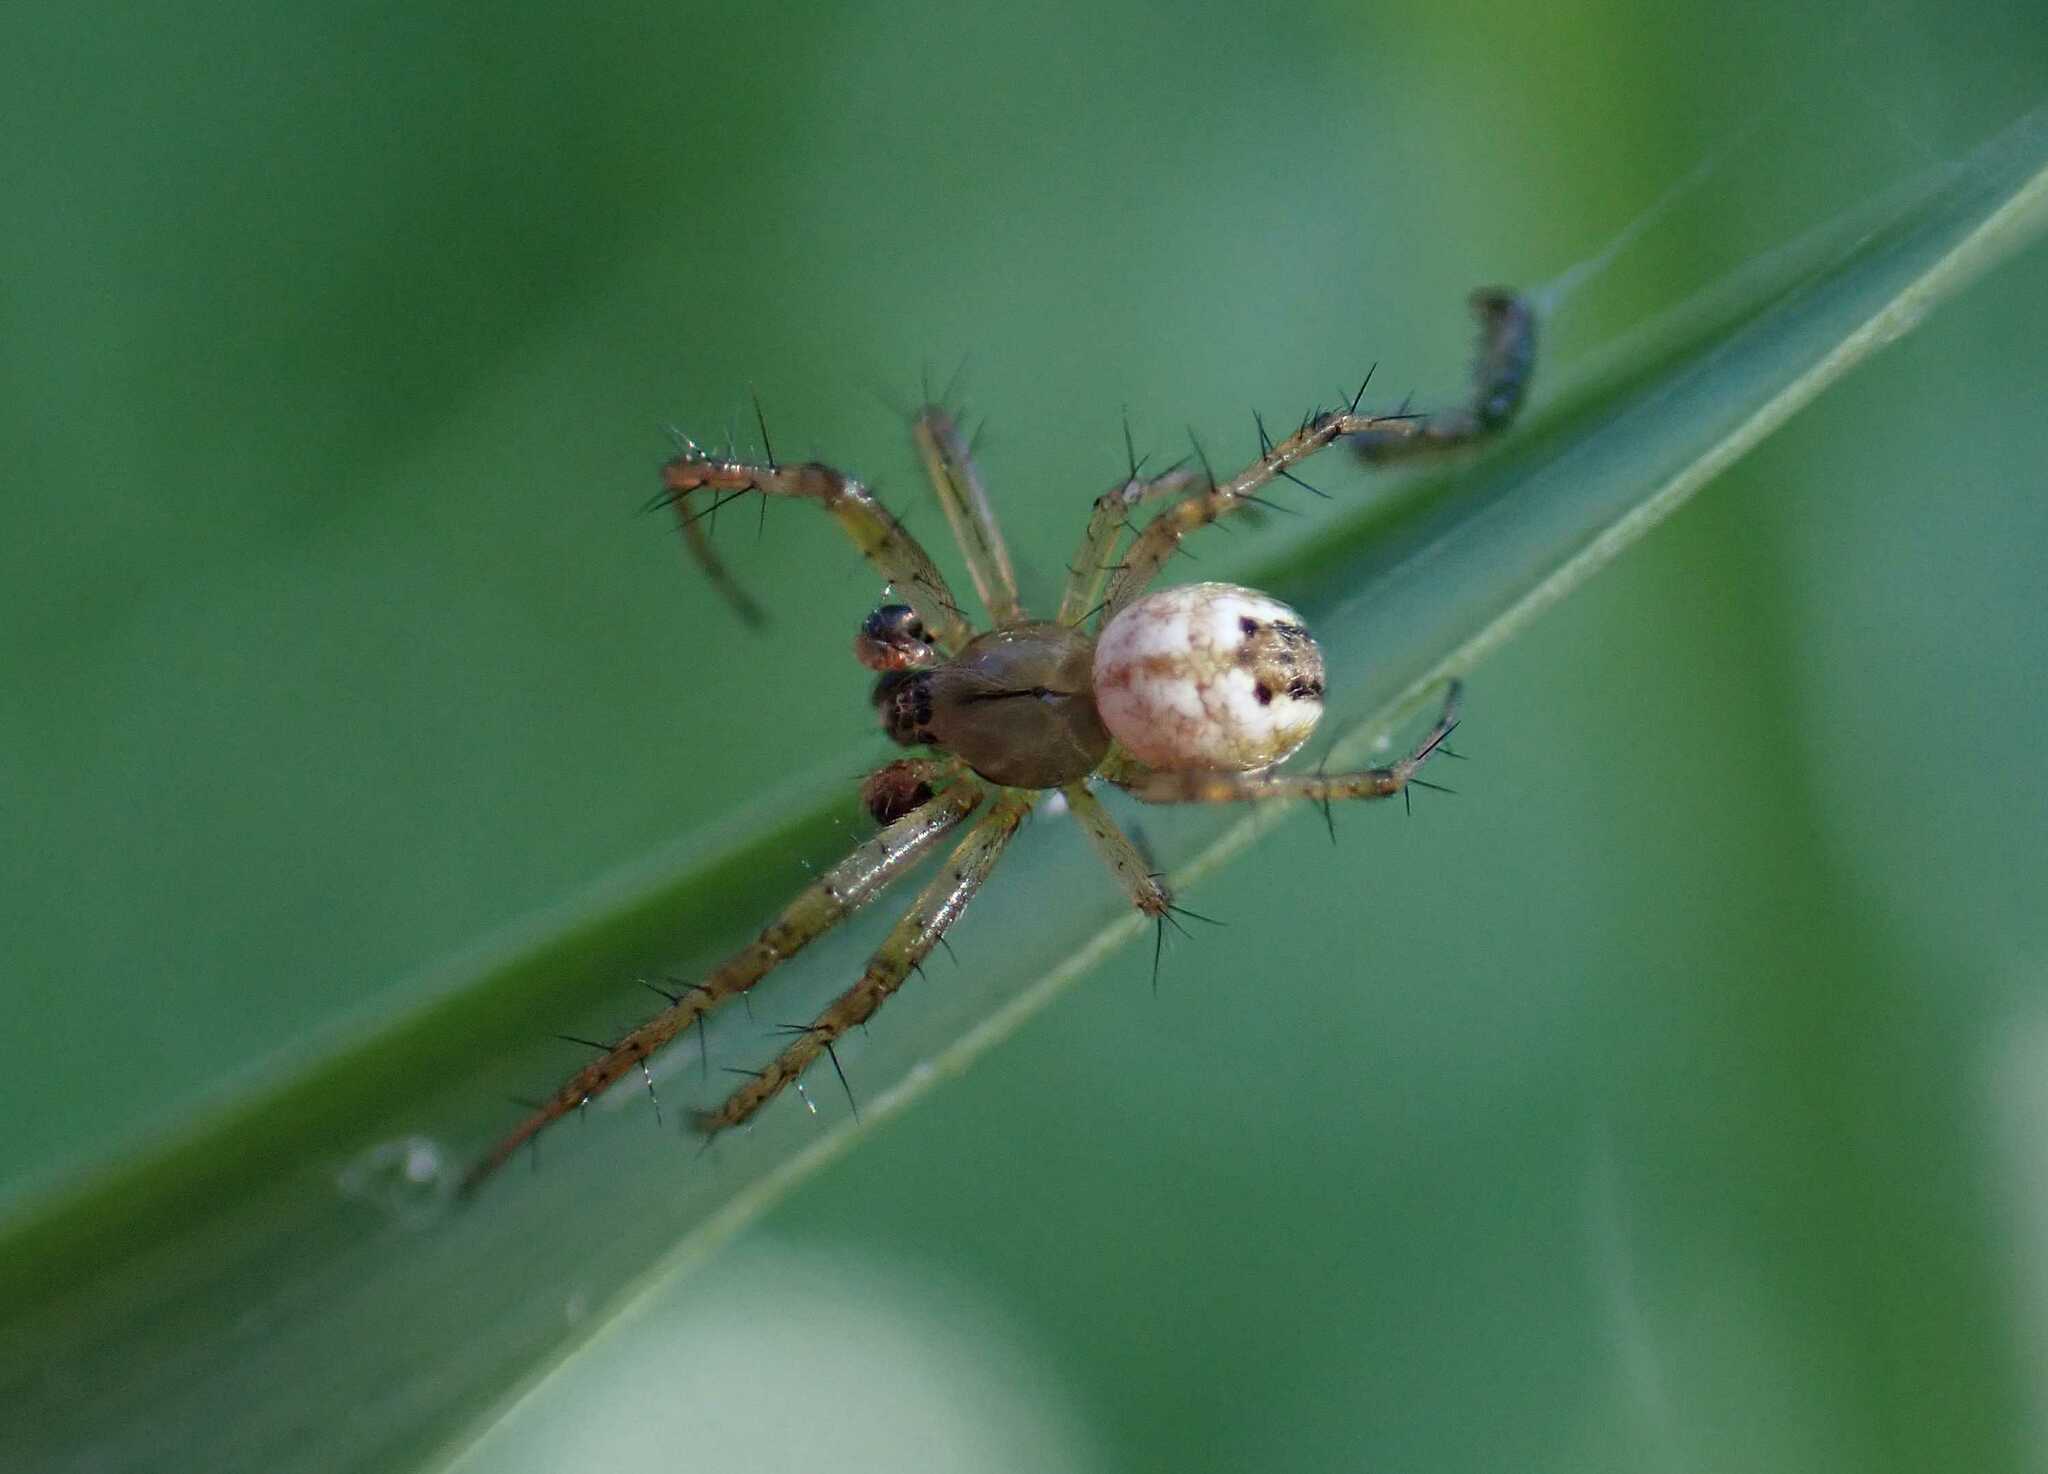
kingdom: Animalia
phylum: Arthropoda
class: Arachnida
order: Araneae
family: Araneidae
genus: Mangora
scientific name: Mangora acalypha
